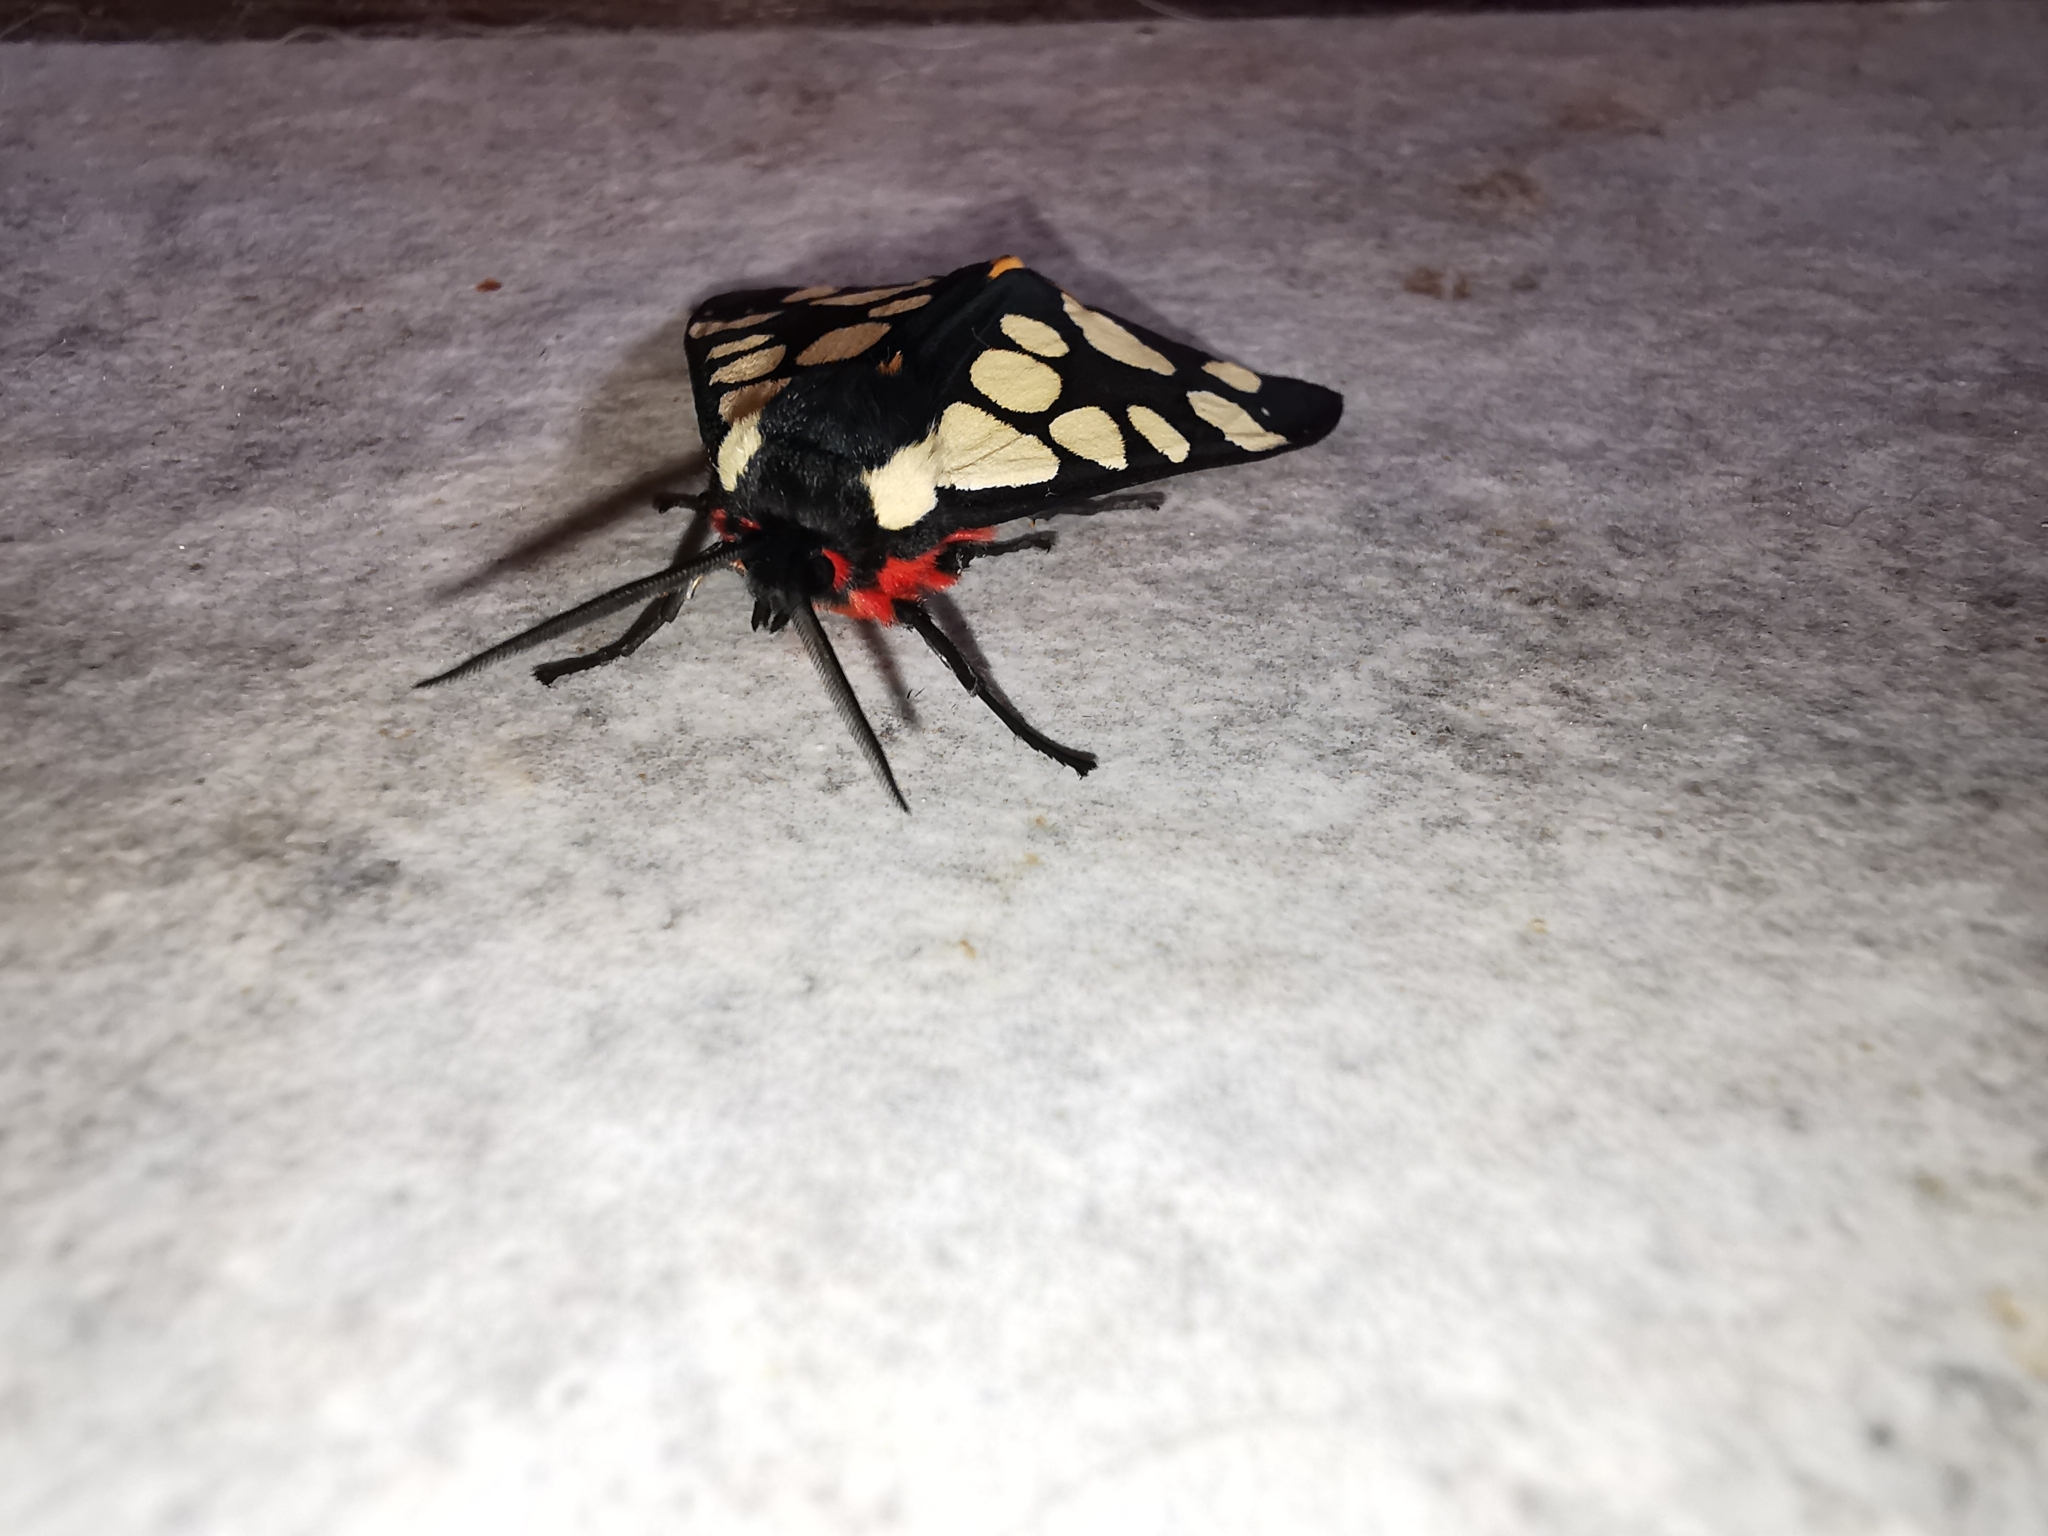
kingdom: Animalia
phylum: Arthropoda
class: Insecta
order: Lepidoptera
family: Erebidae
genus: Epicallia
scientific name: Epicallia villica
